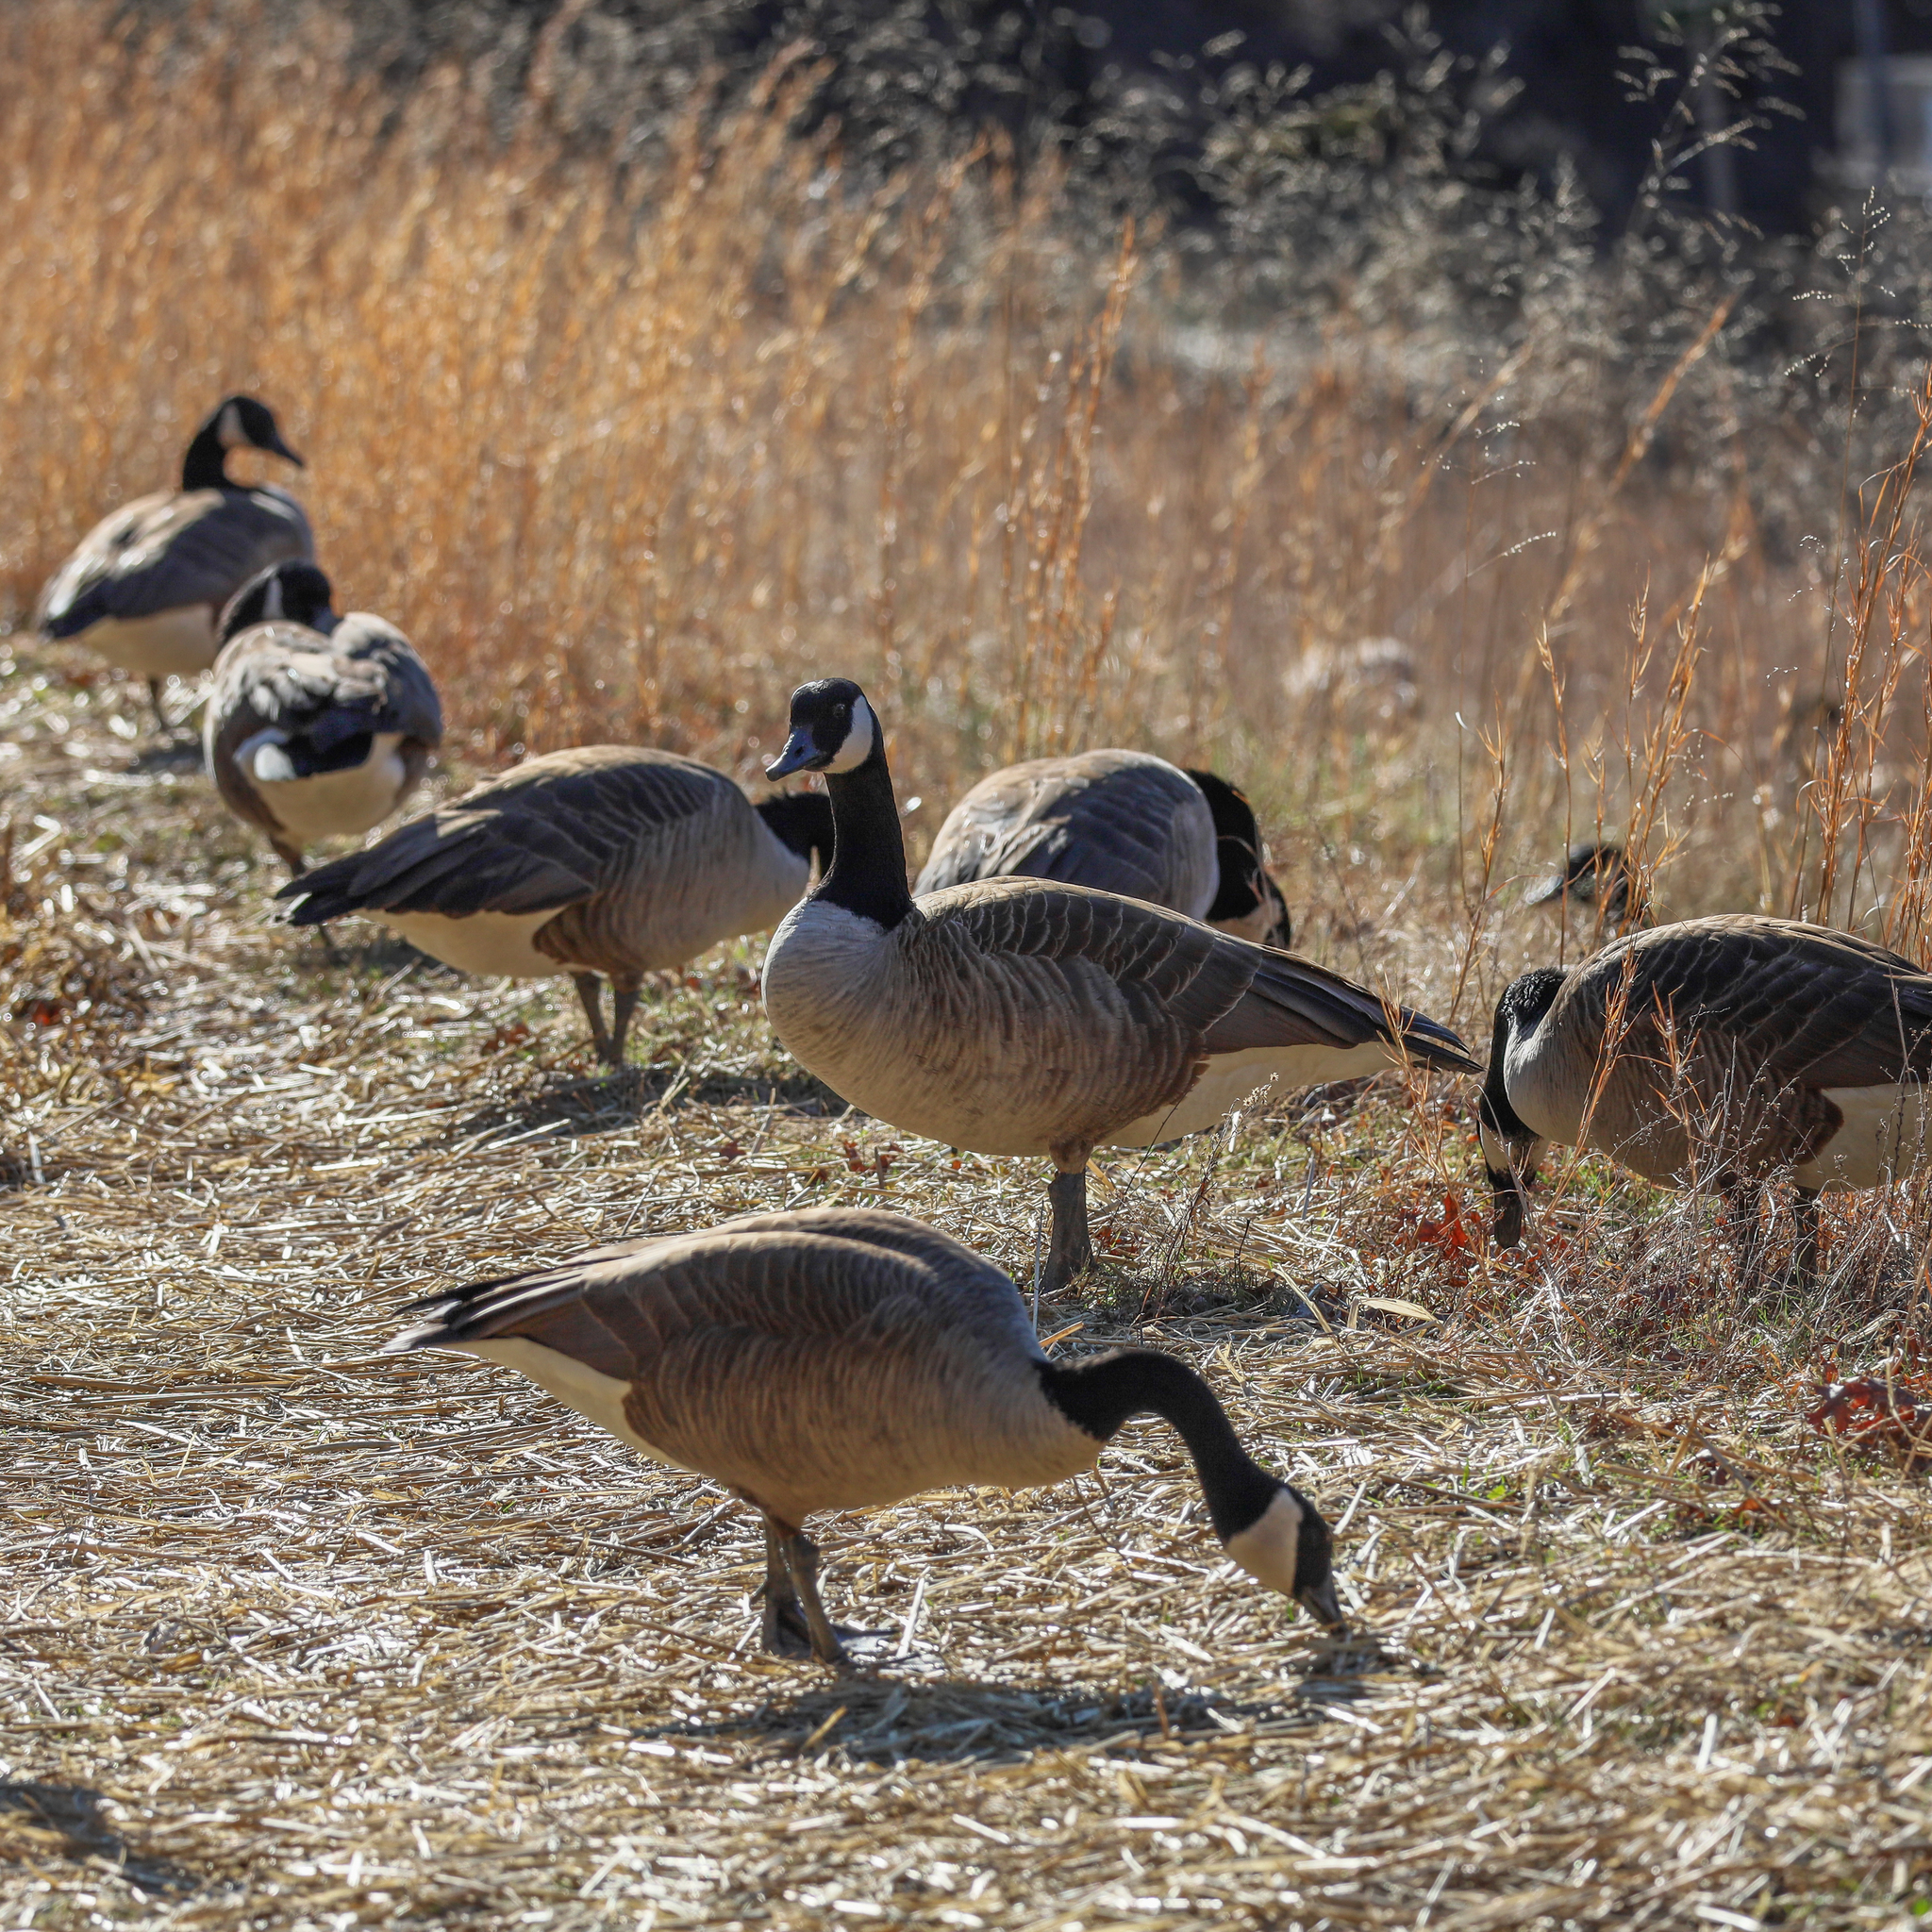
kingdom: Animalia
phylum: Chordata
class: Aves
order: Anseriformes
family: Anatidae
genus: Branta
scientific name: Branta canadensis
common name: Canada goose
